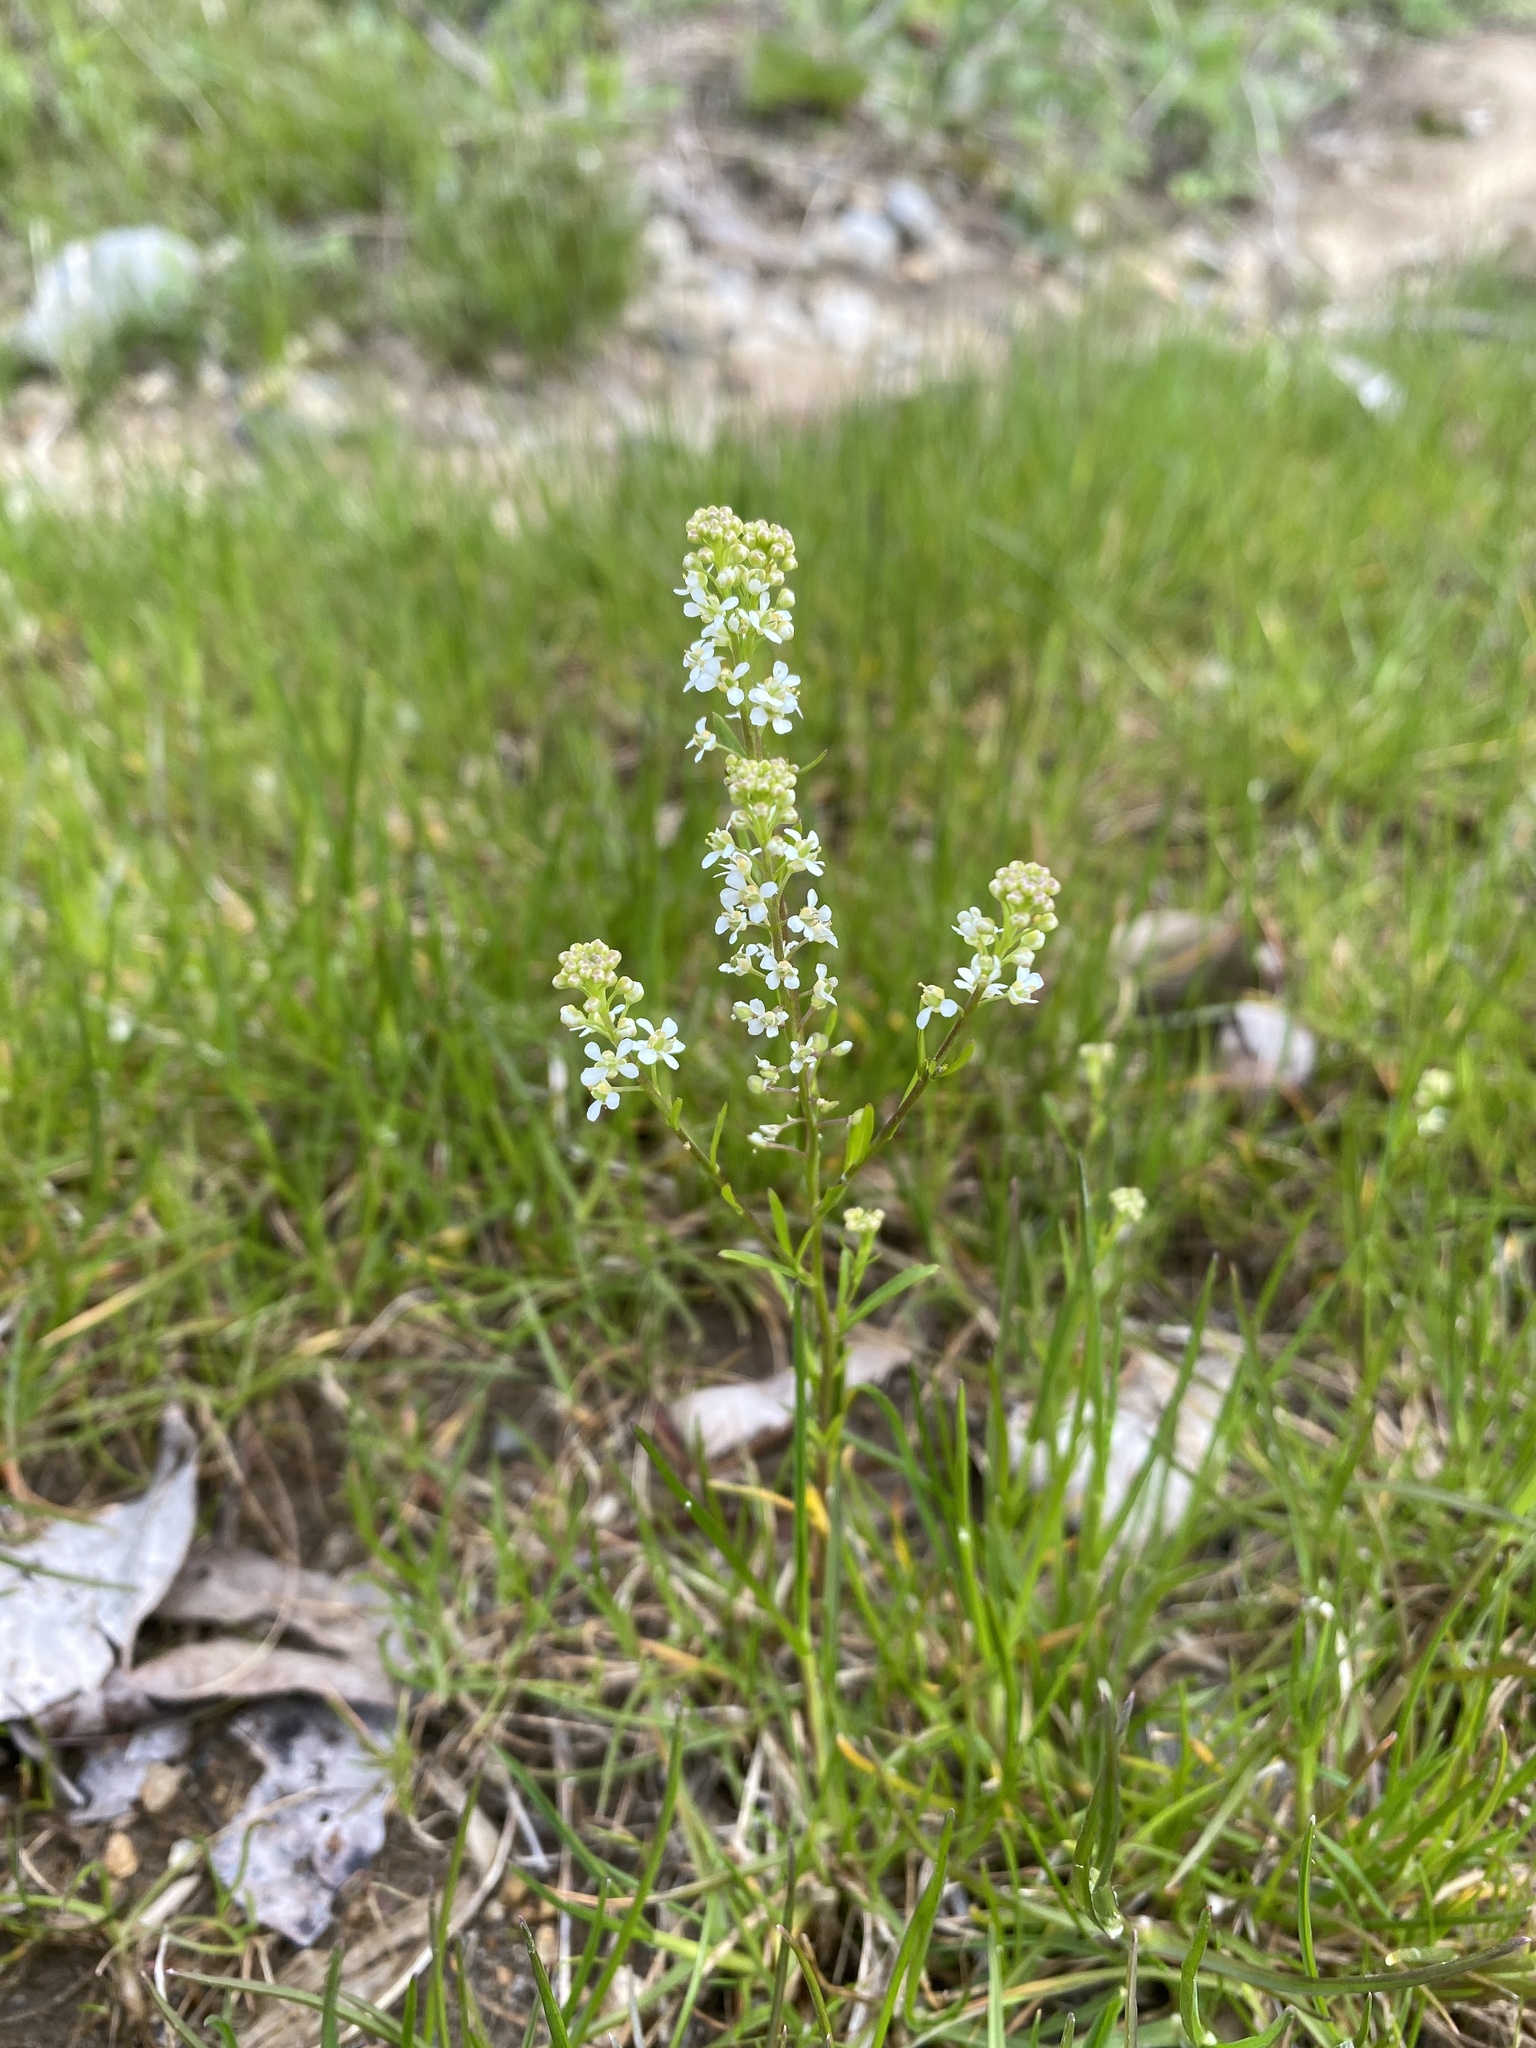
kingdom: Plantae
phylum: Tracheophyta
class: Magnoliopsida
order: Brassicales
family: Brassicaceae
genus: Lepidium
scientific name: Lepidium virginicum
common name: Least pepperwort
